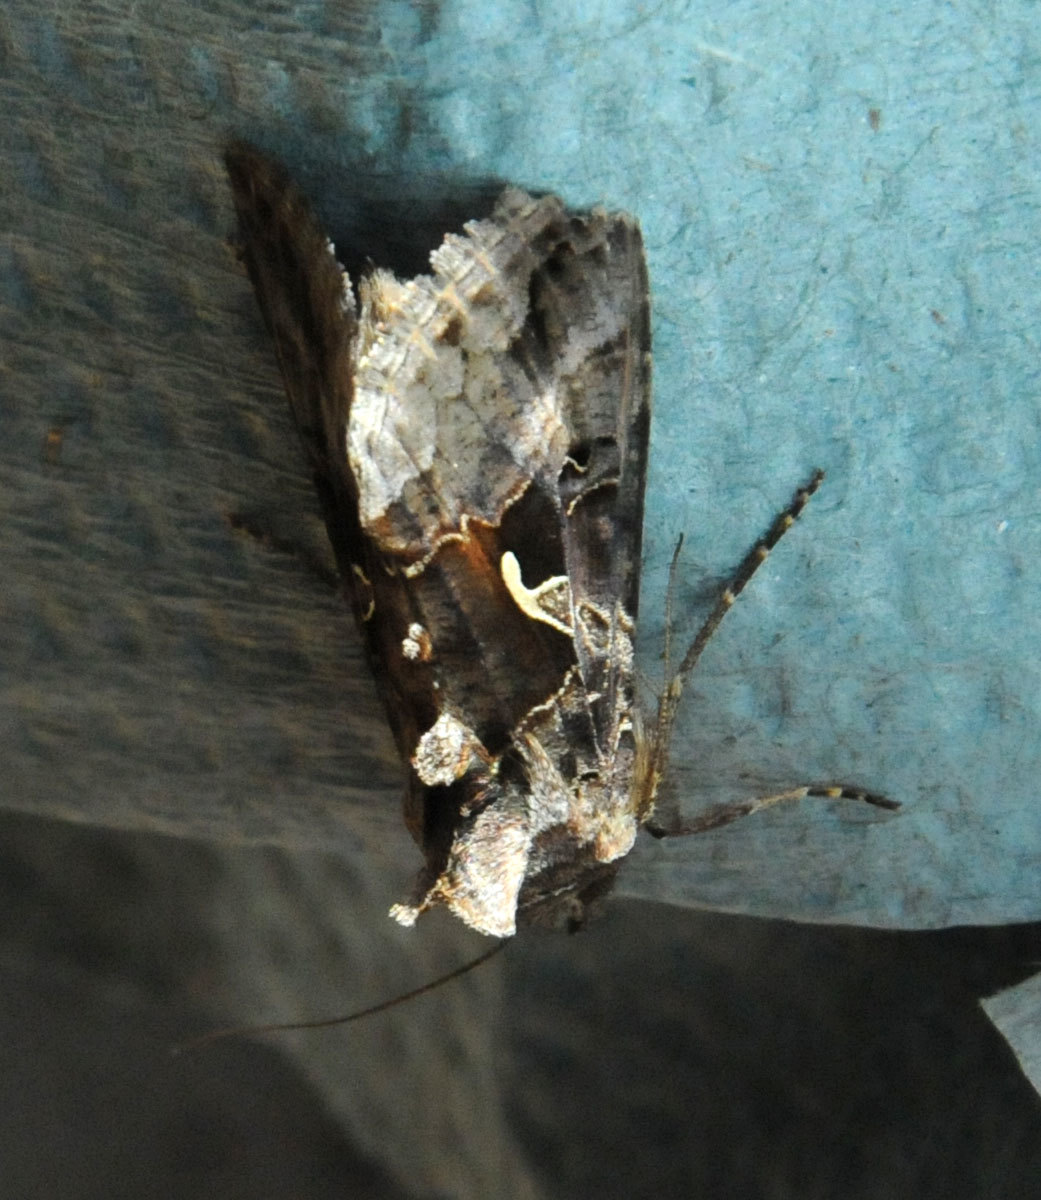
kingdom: Animalia
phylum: Arthropoda
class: Insecta
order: Lepidoptera
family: Noctuidae
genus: Autographa
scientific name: Autographa gamma
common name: Silver y
